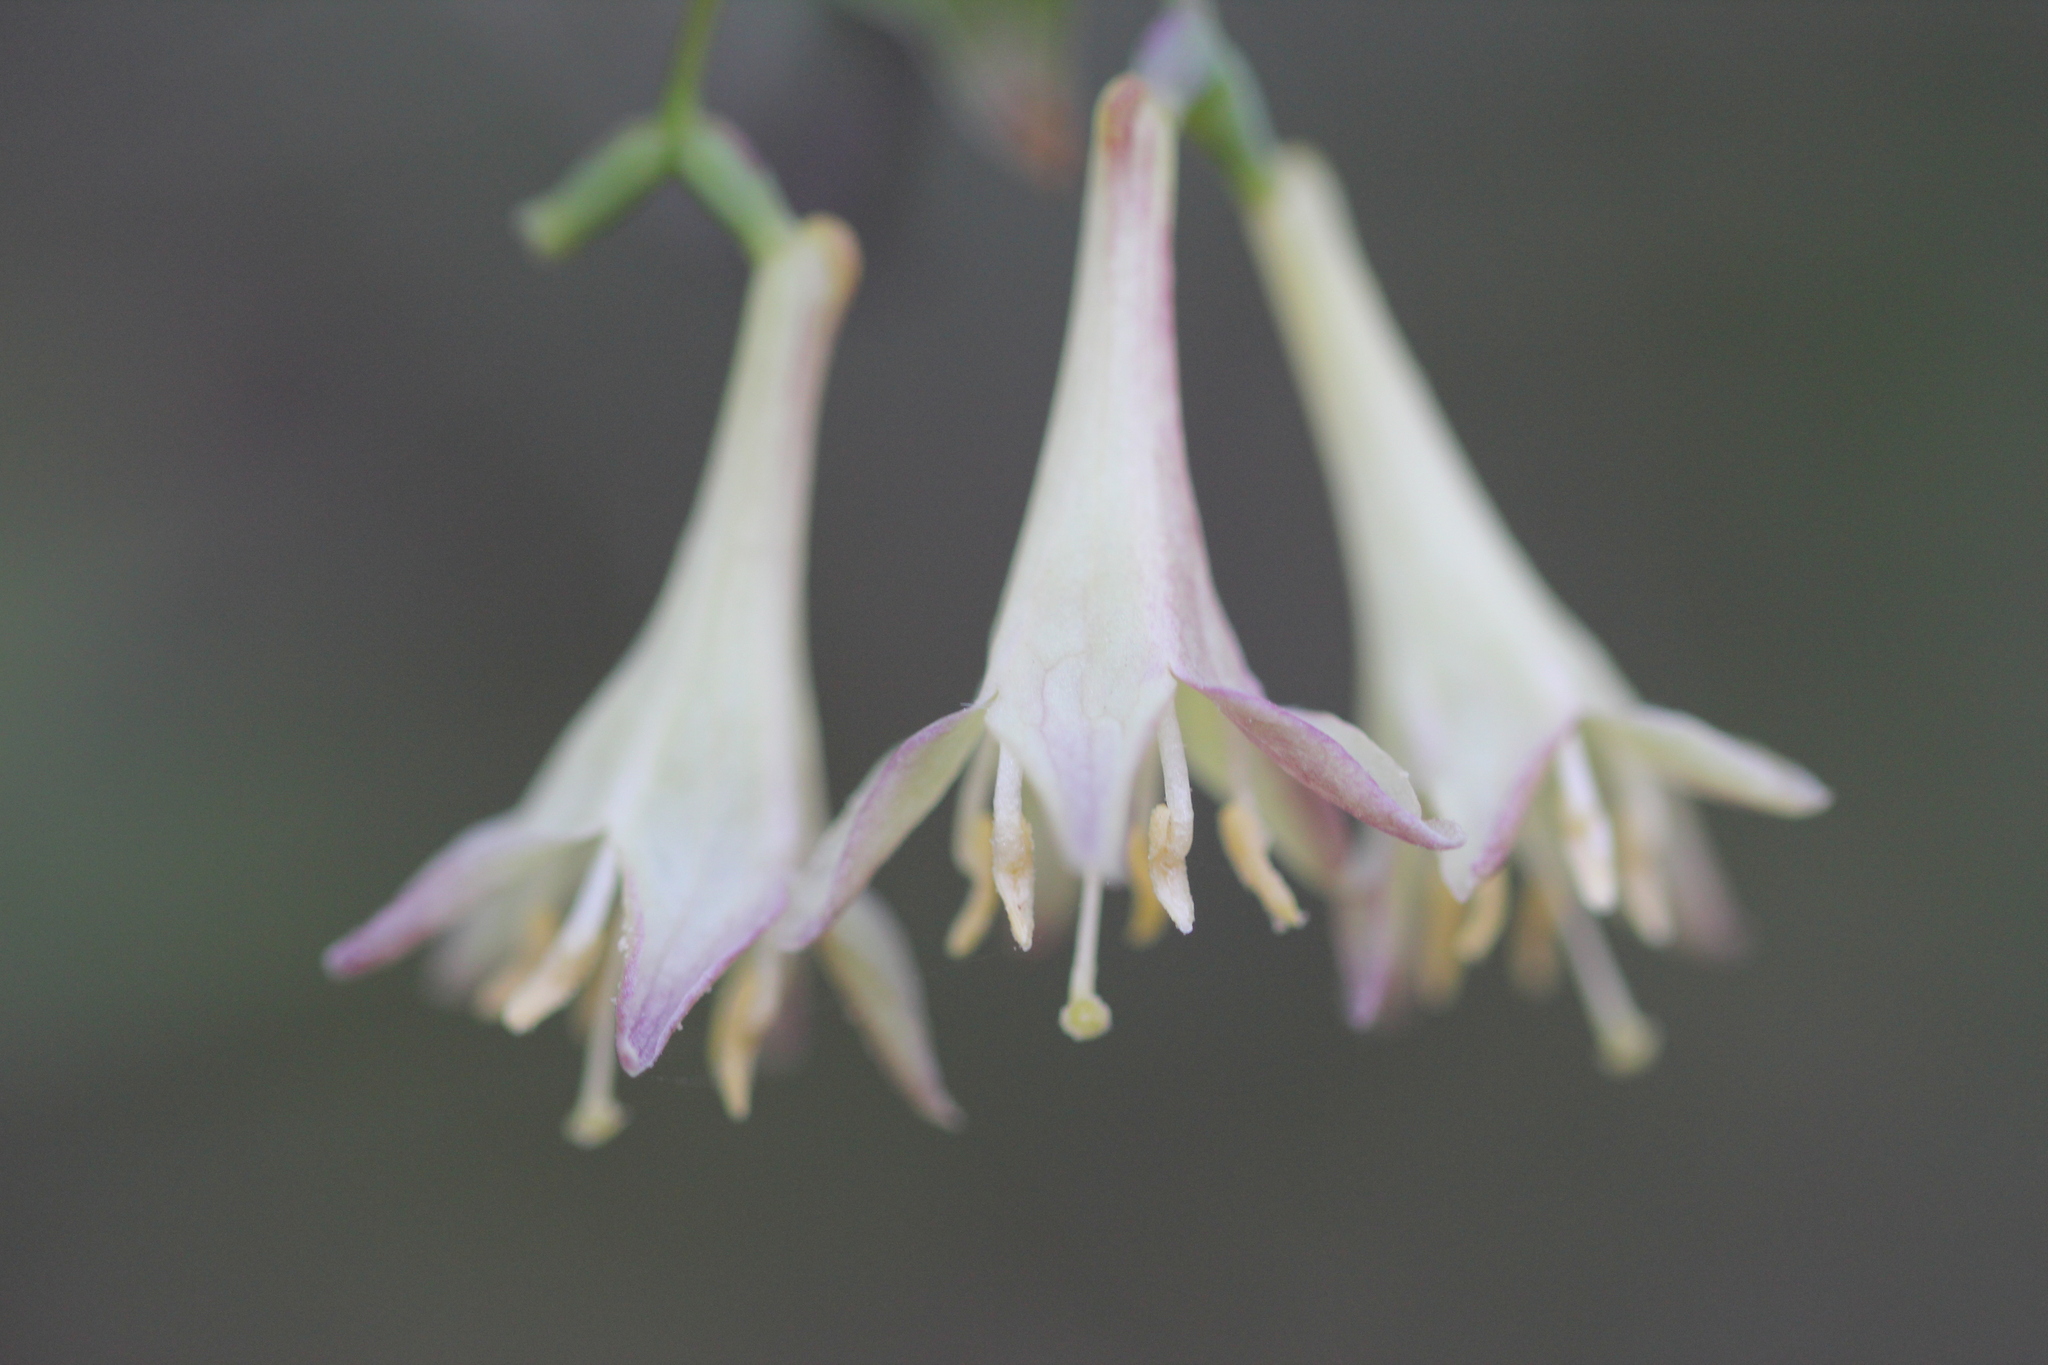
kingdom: Plantae
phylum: Tracheophyta
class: Magnoliopsida
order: Dipsacales
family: Caprifoliaceae
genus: Lonicera
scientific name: Lonicera canadensis
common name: American fly-honeysuckle
